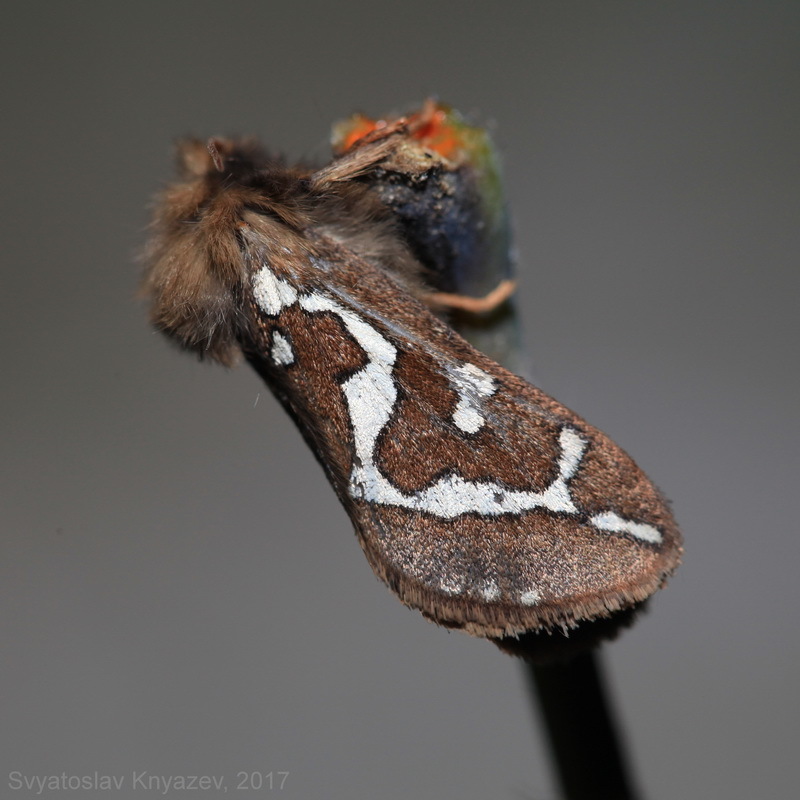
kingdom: Animalia
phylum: Arthropoda
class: Insecta
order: Lepidoptera
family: Hepialidae
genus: Gazoryctra
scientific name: Gazoryctra ganna
